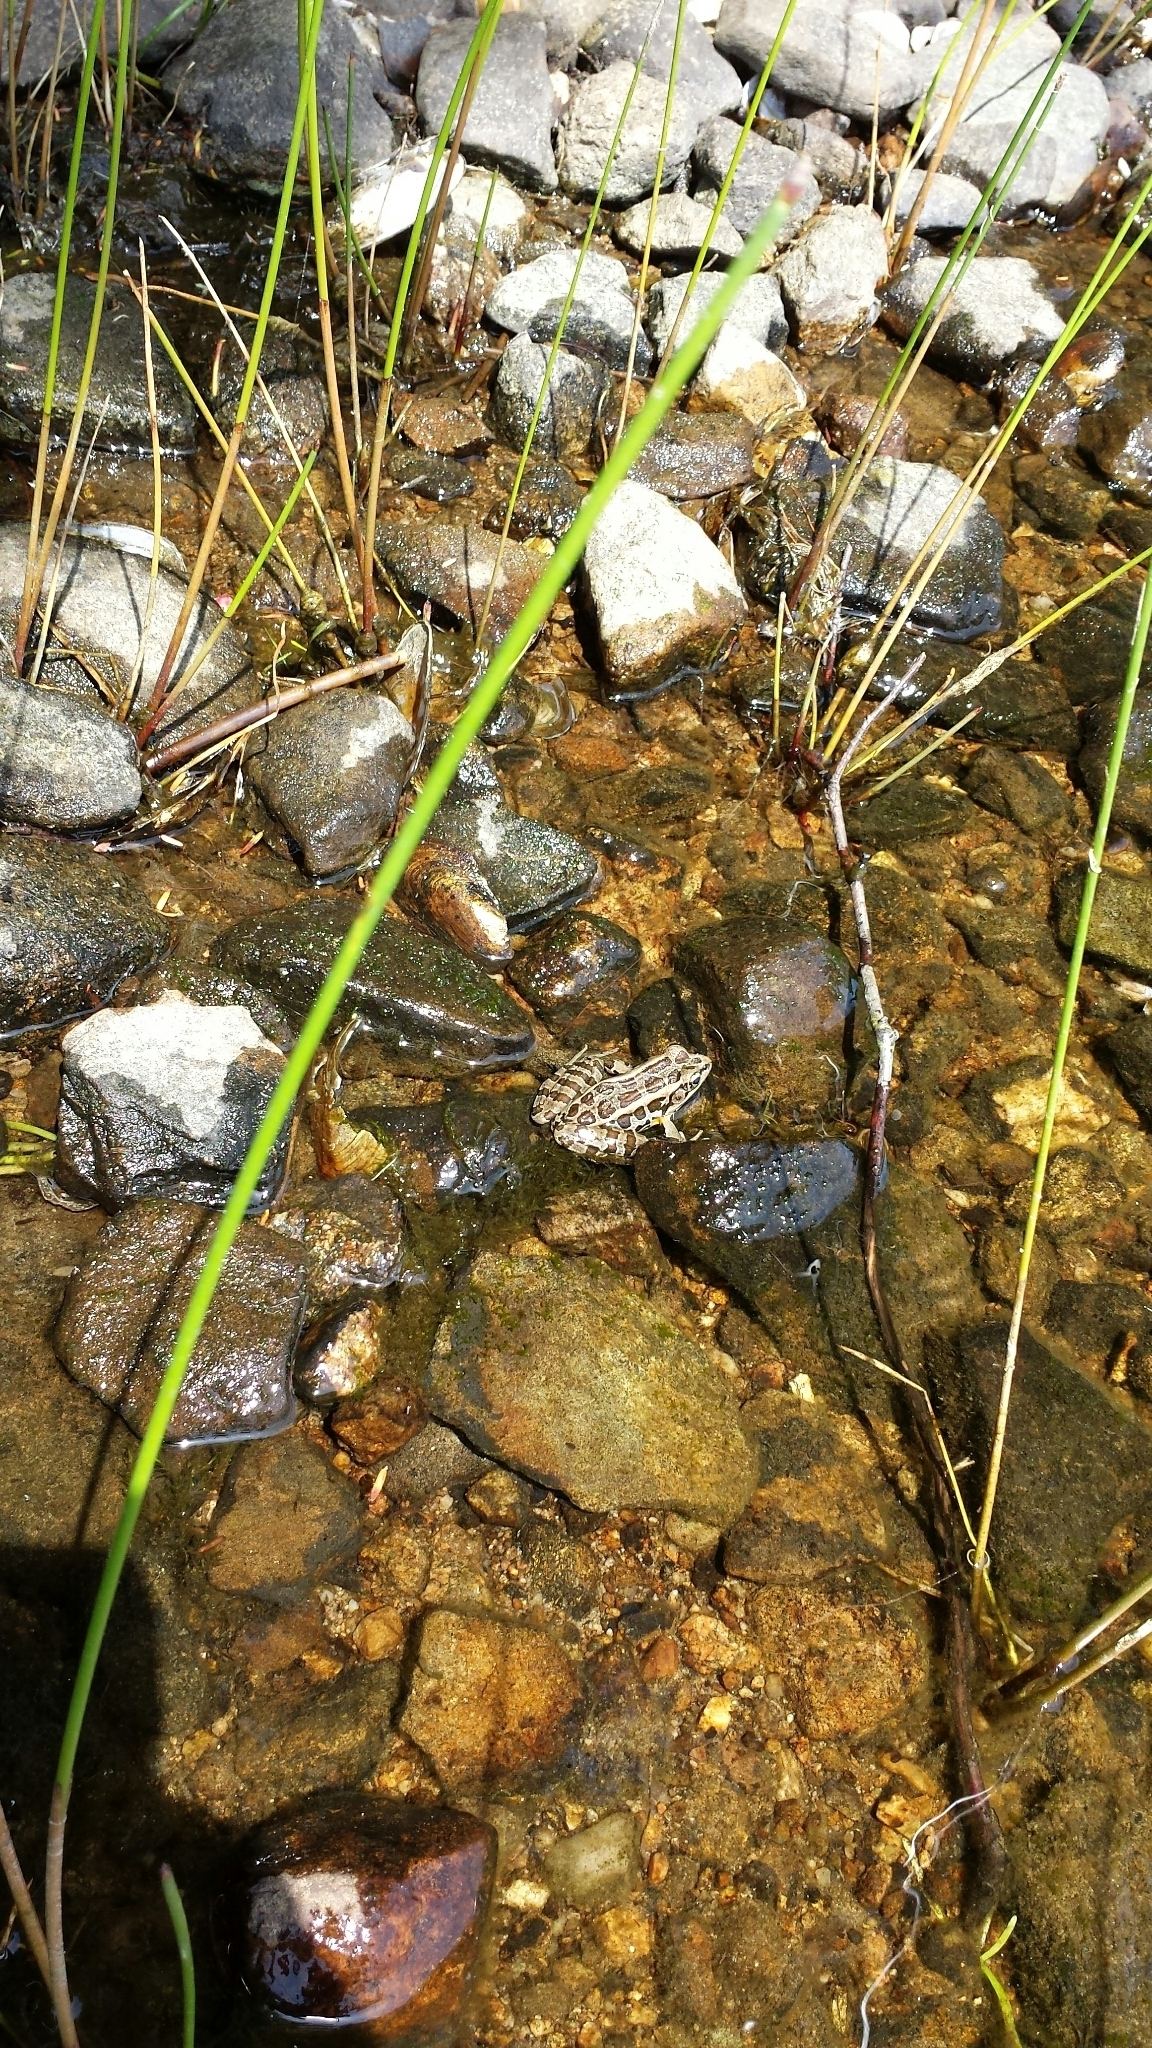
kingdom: Animalia
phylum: Chordata
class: Amphibia
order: Anura
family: Ranidae
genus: Lithobates
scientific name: Lithobates palustris
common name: Pickerel frog
